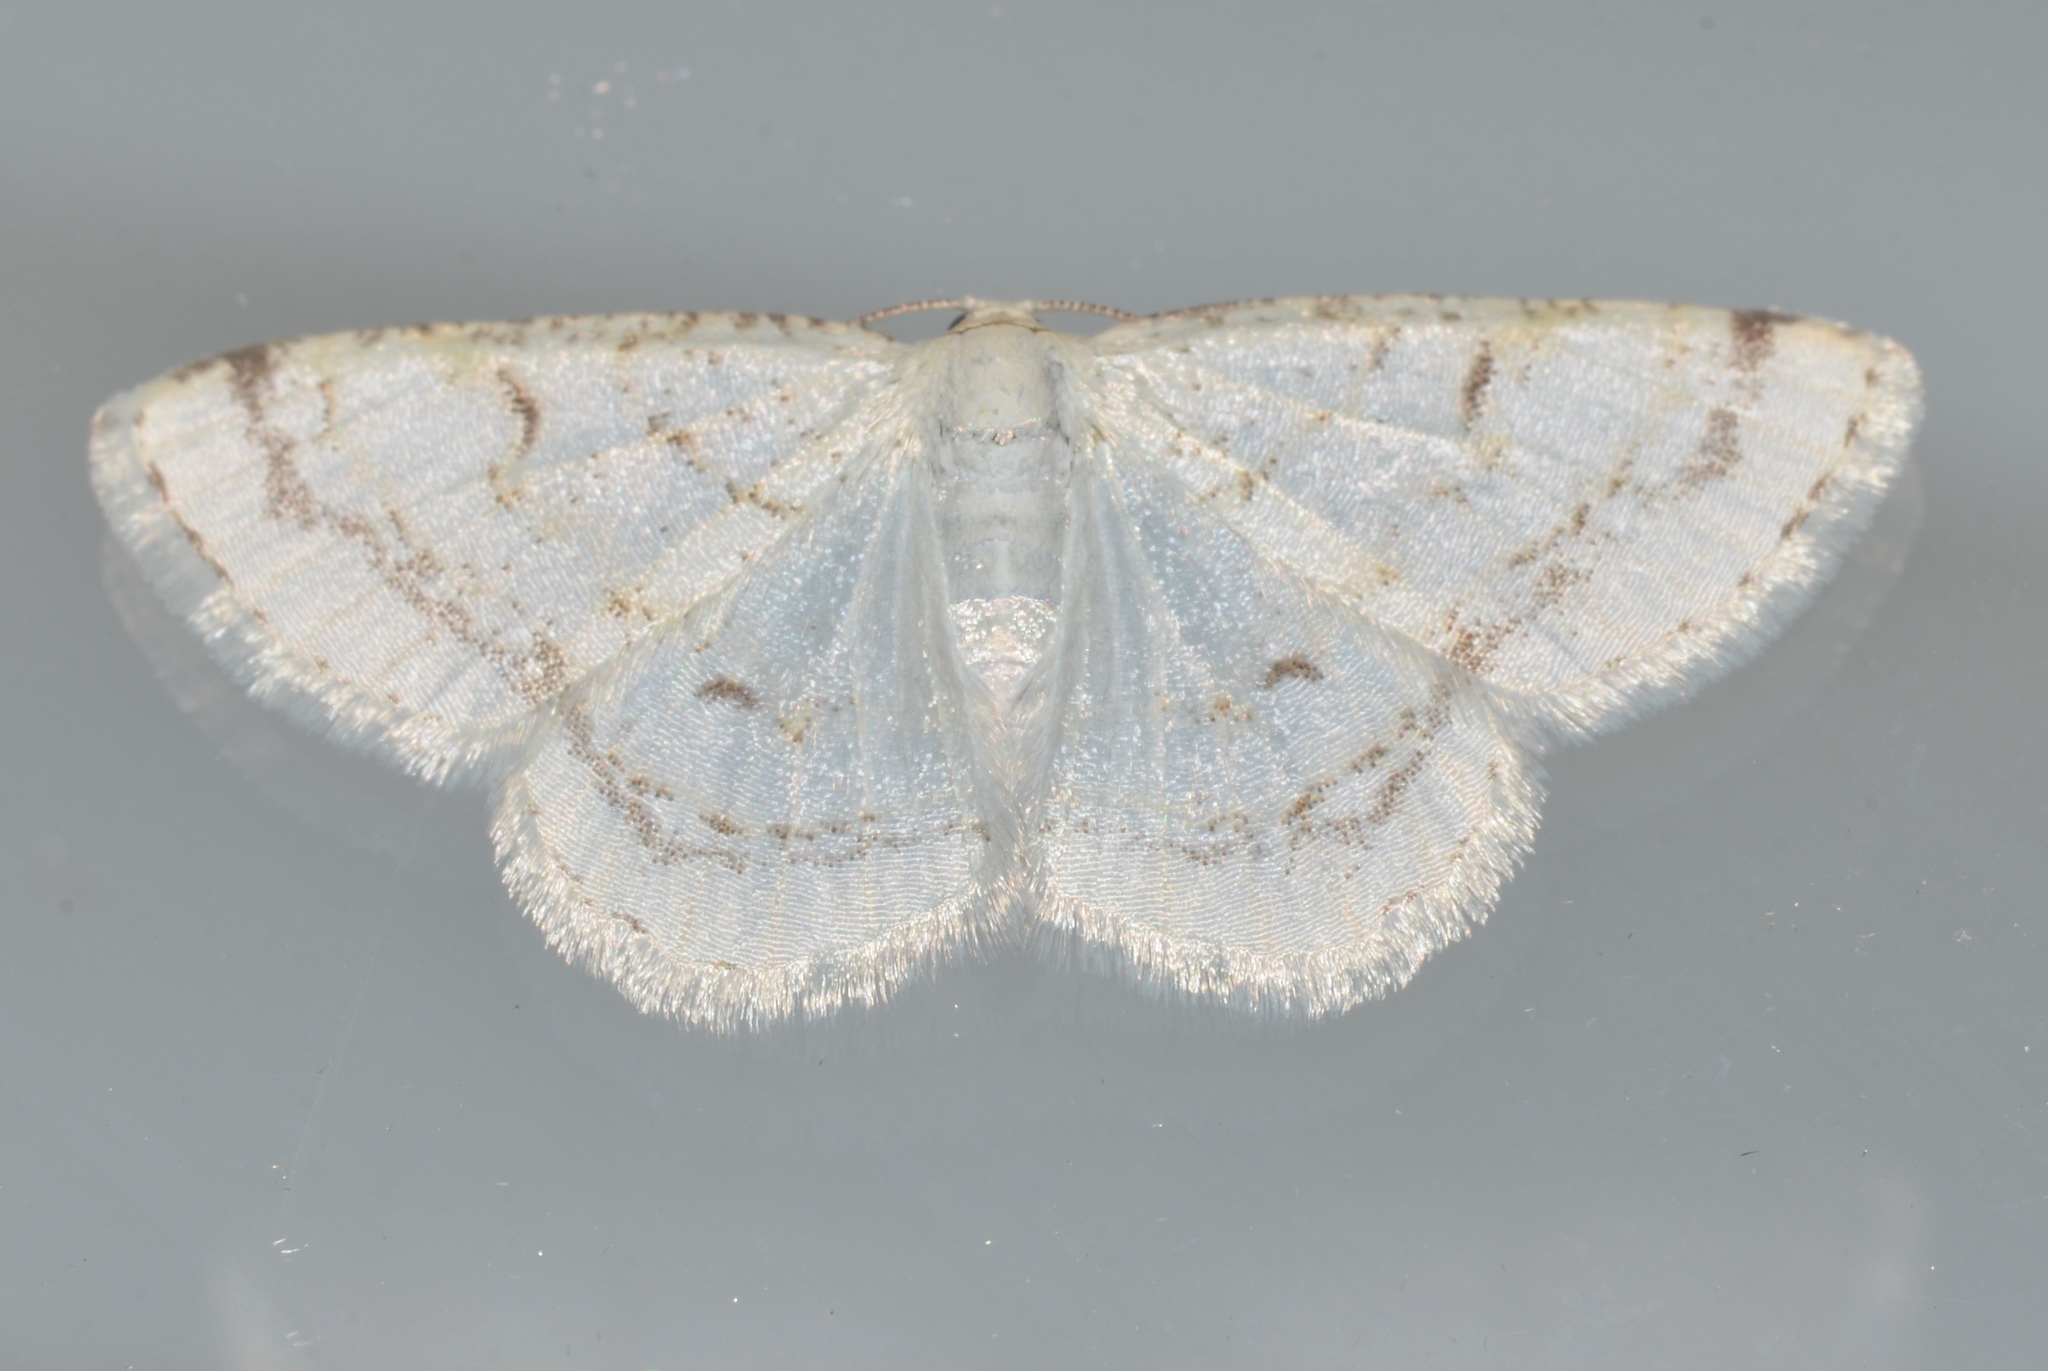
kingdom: Animalia
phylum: Arthropoda
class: Insecta
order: Lepidoptera
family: Geometridae
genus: Protitame
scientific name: Protitame virginalis
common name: Virgin moth
